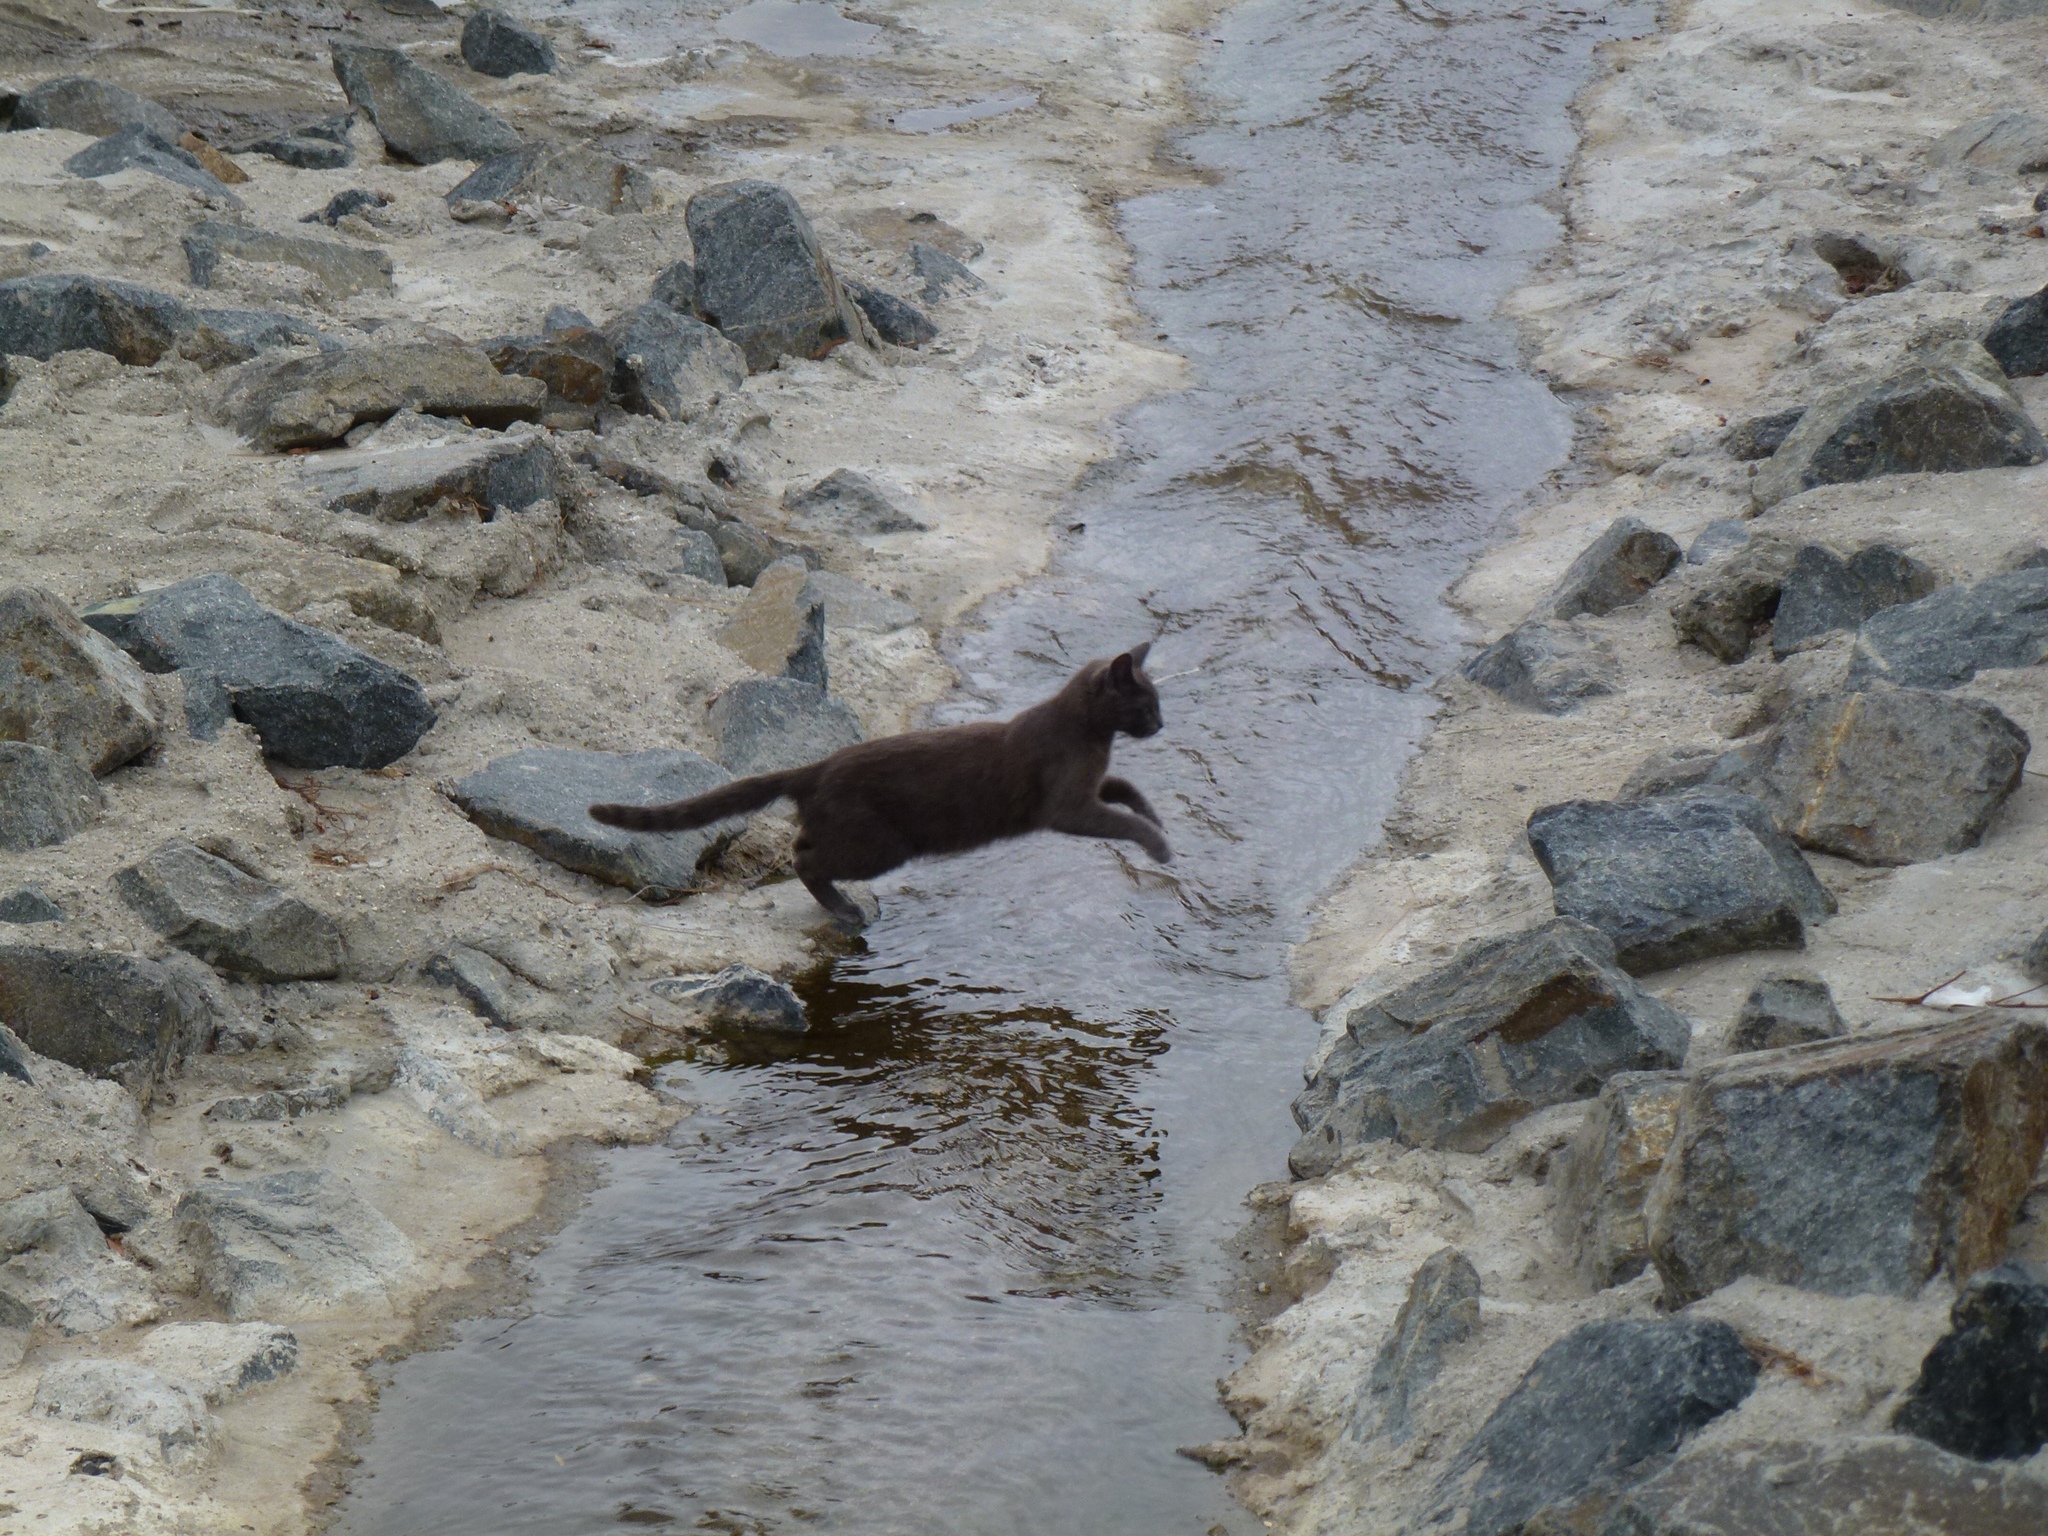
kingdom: Animalia
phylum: Chordata
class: Mammalia
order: Carnivora
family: Felidae
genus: Felis
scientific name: Felis catus
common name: Domestic cat
